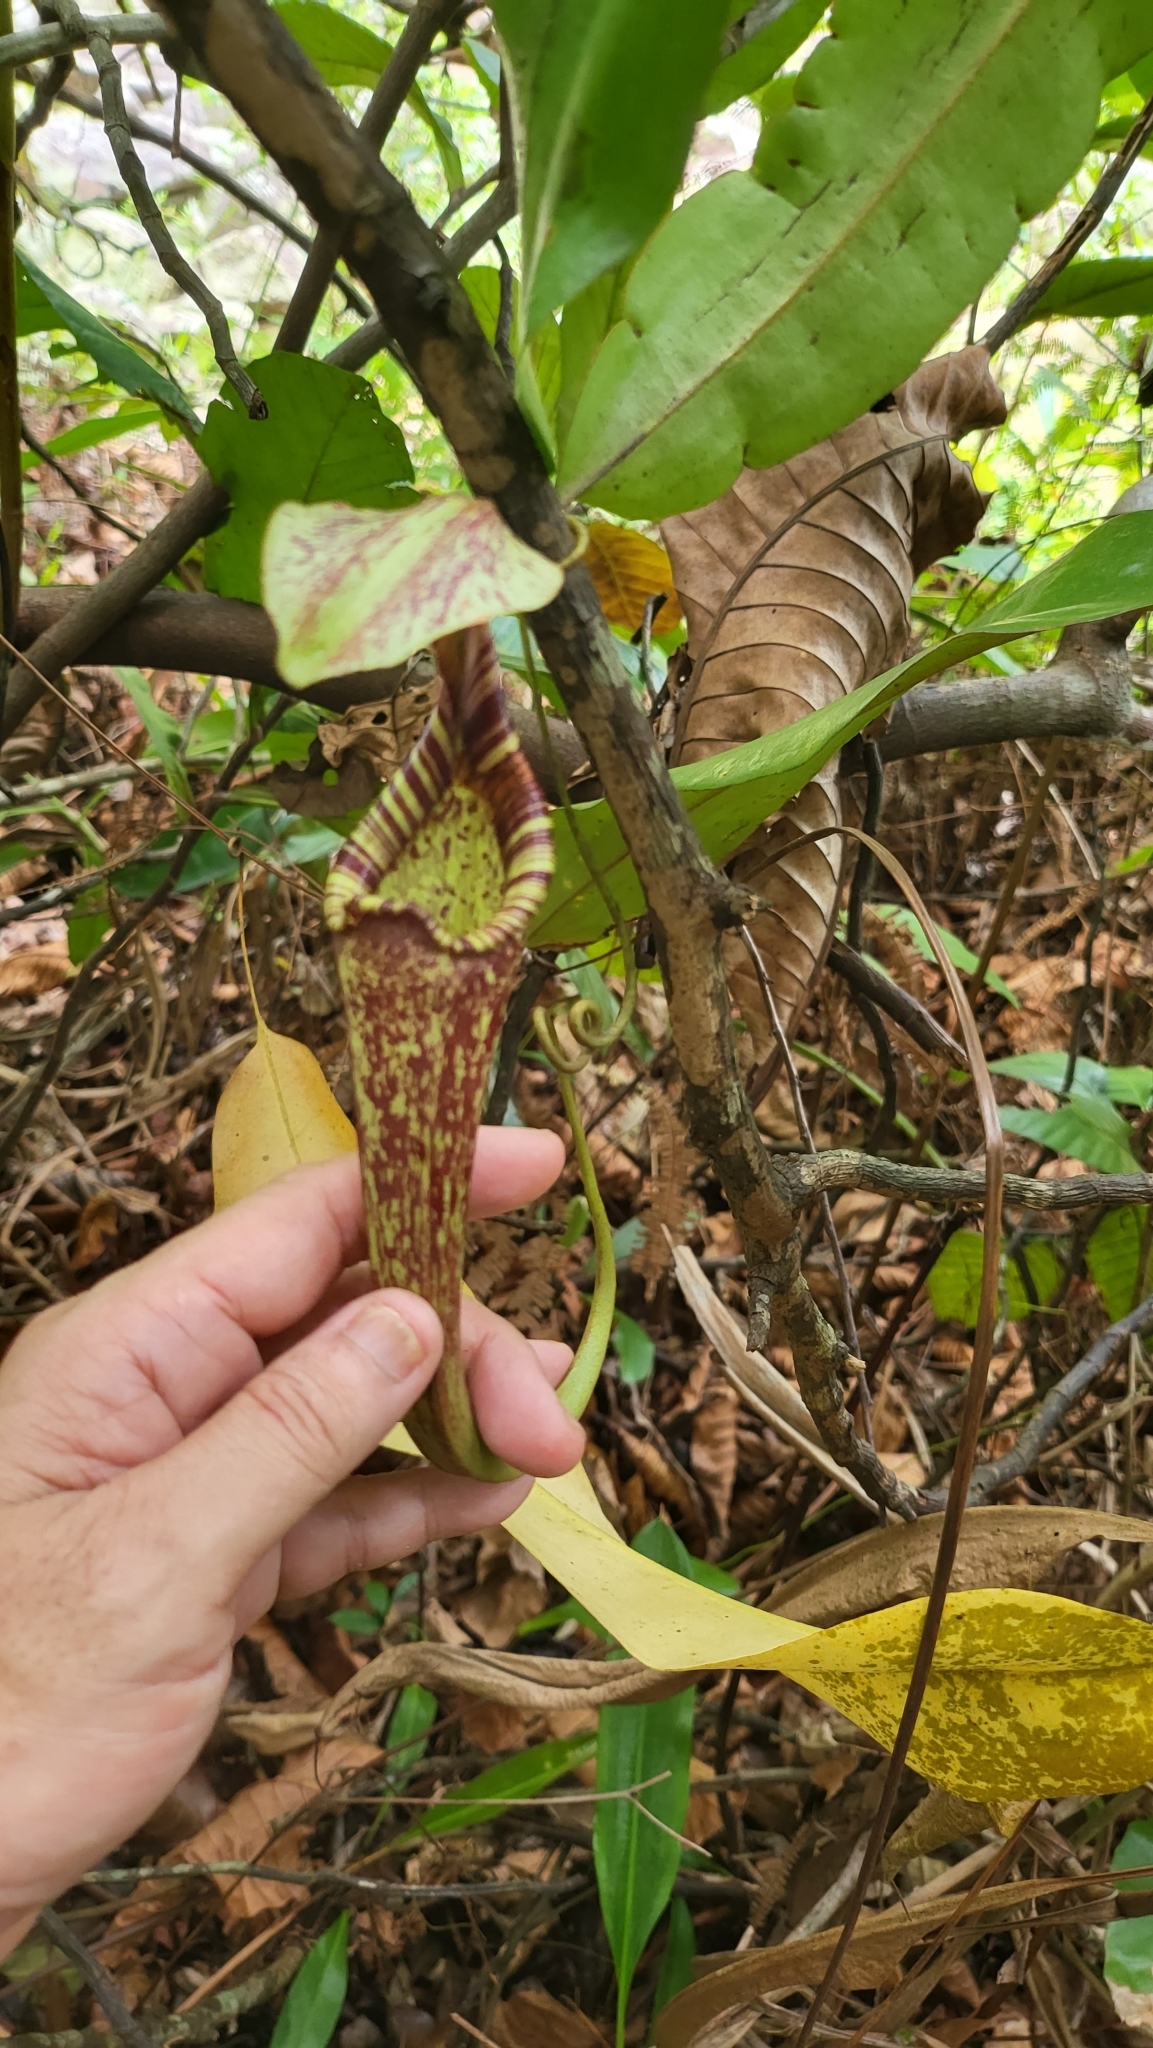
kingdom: Plantae
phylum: Tracheophyta
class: Magnoliopsida
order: Caryophyllales
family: Nepenthaceae
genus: Nepenthes
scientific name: Nepenthes rafflesiana
